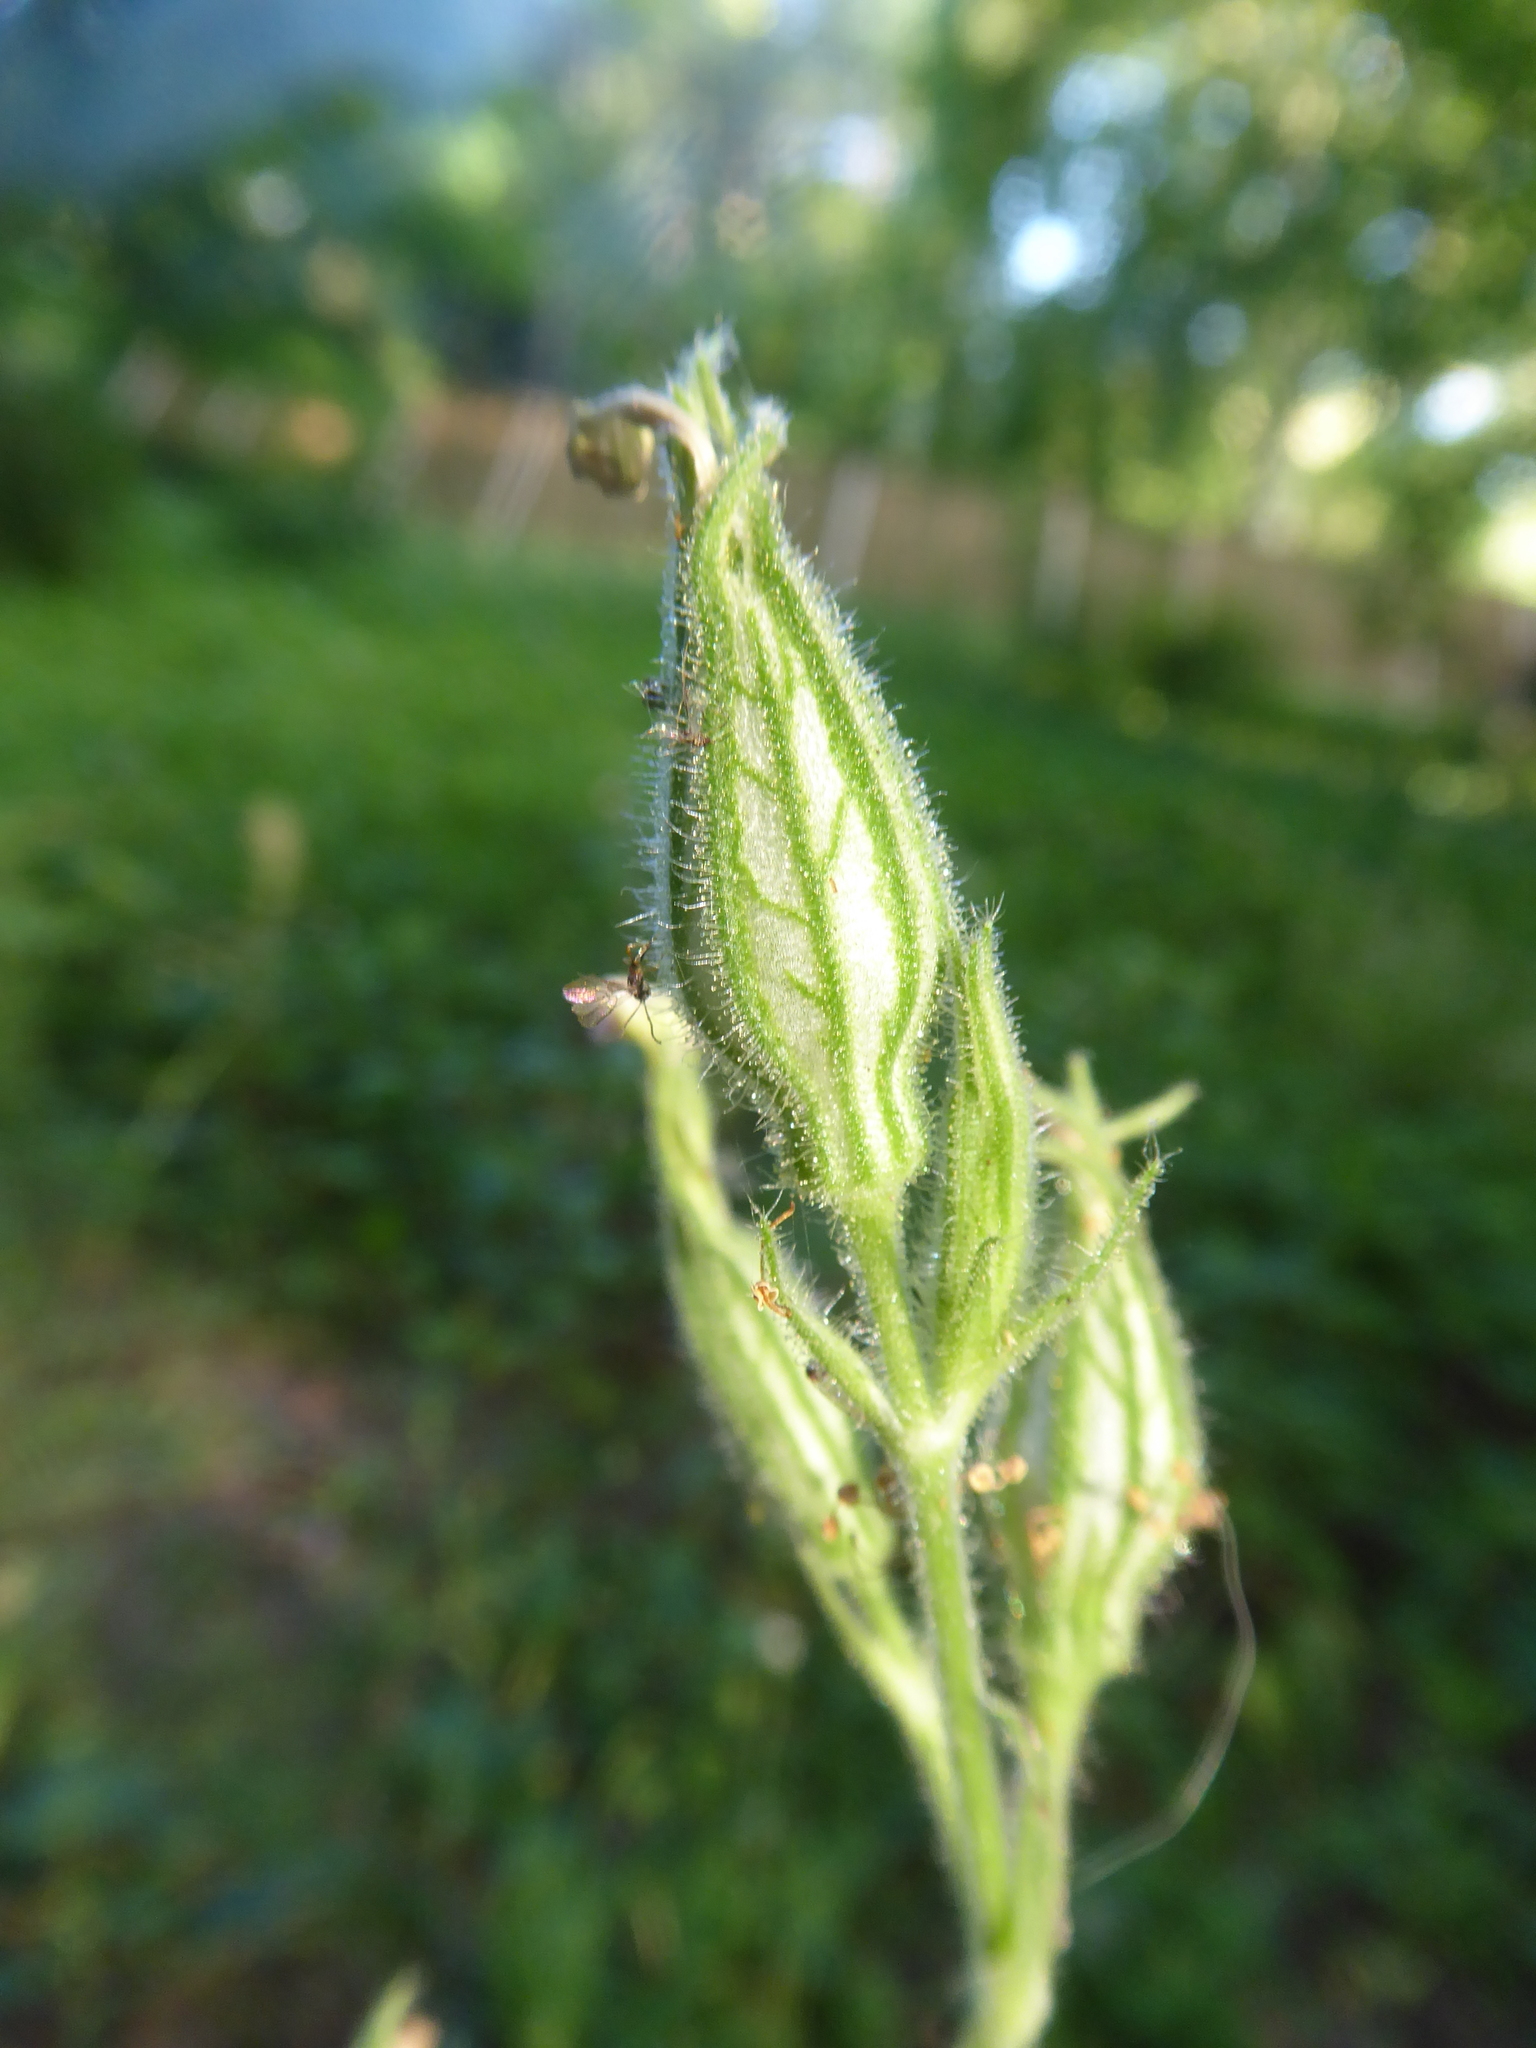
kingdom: Plantae
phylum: Tracheophyta
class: Magnoliopsida
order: Caryophyllales
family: Caryophyllaceae
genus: Silene
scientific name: Silene noctiflora
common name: Night-flowering catchfly
